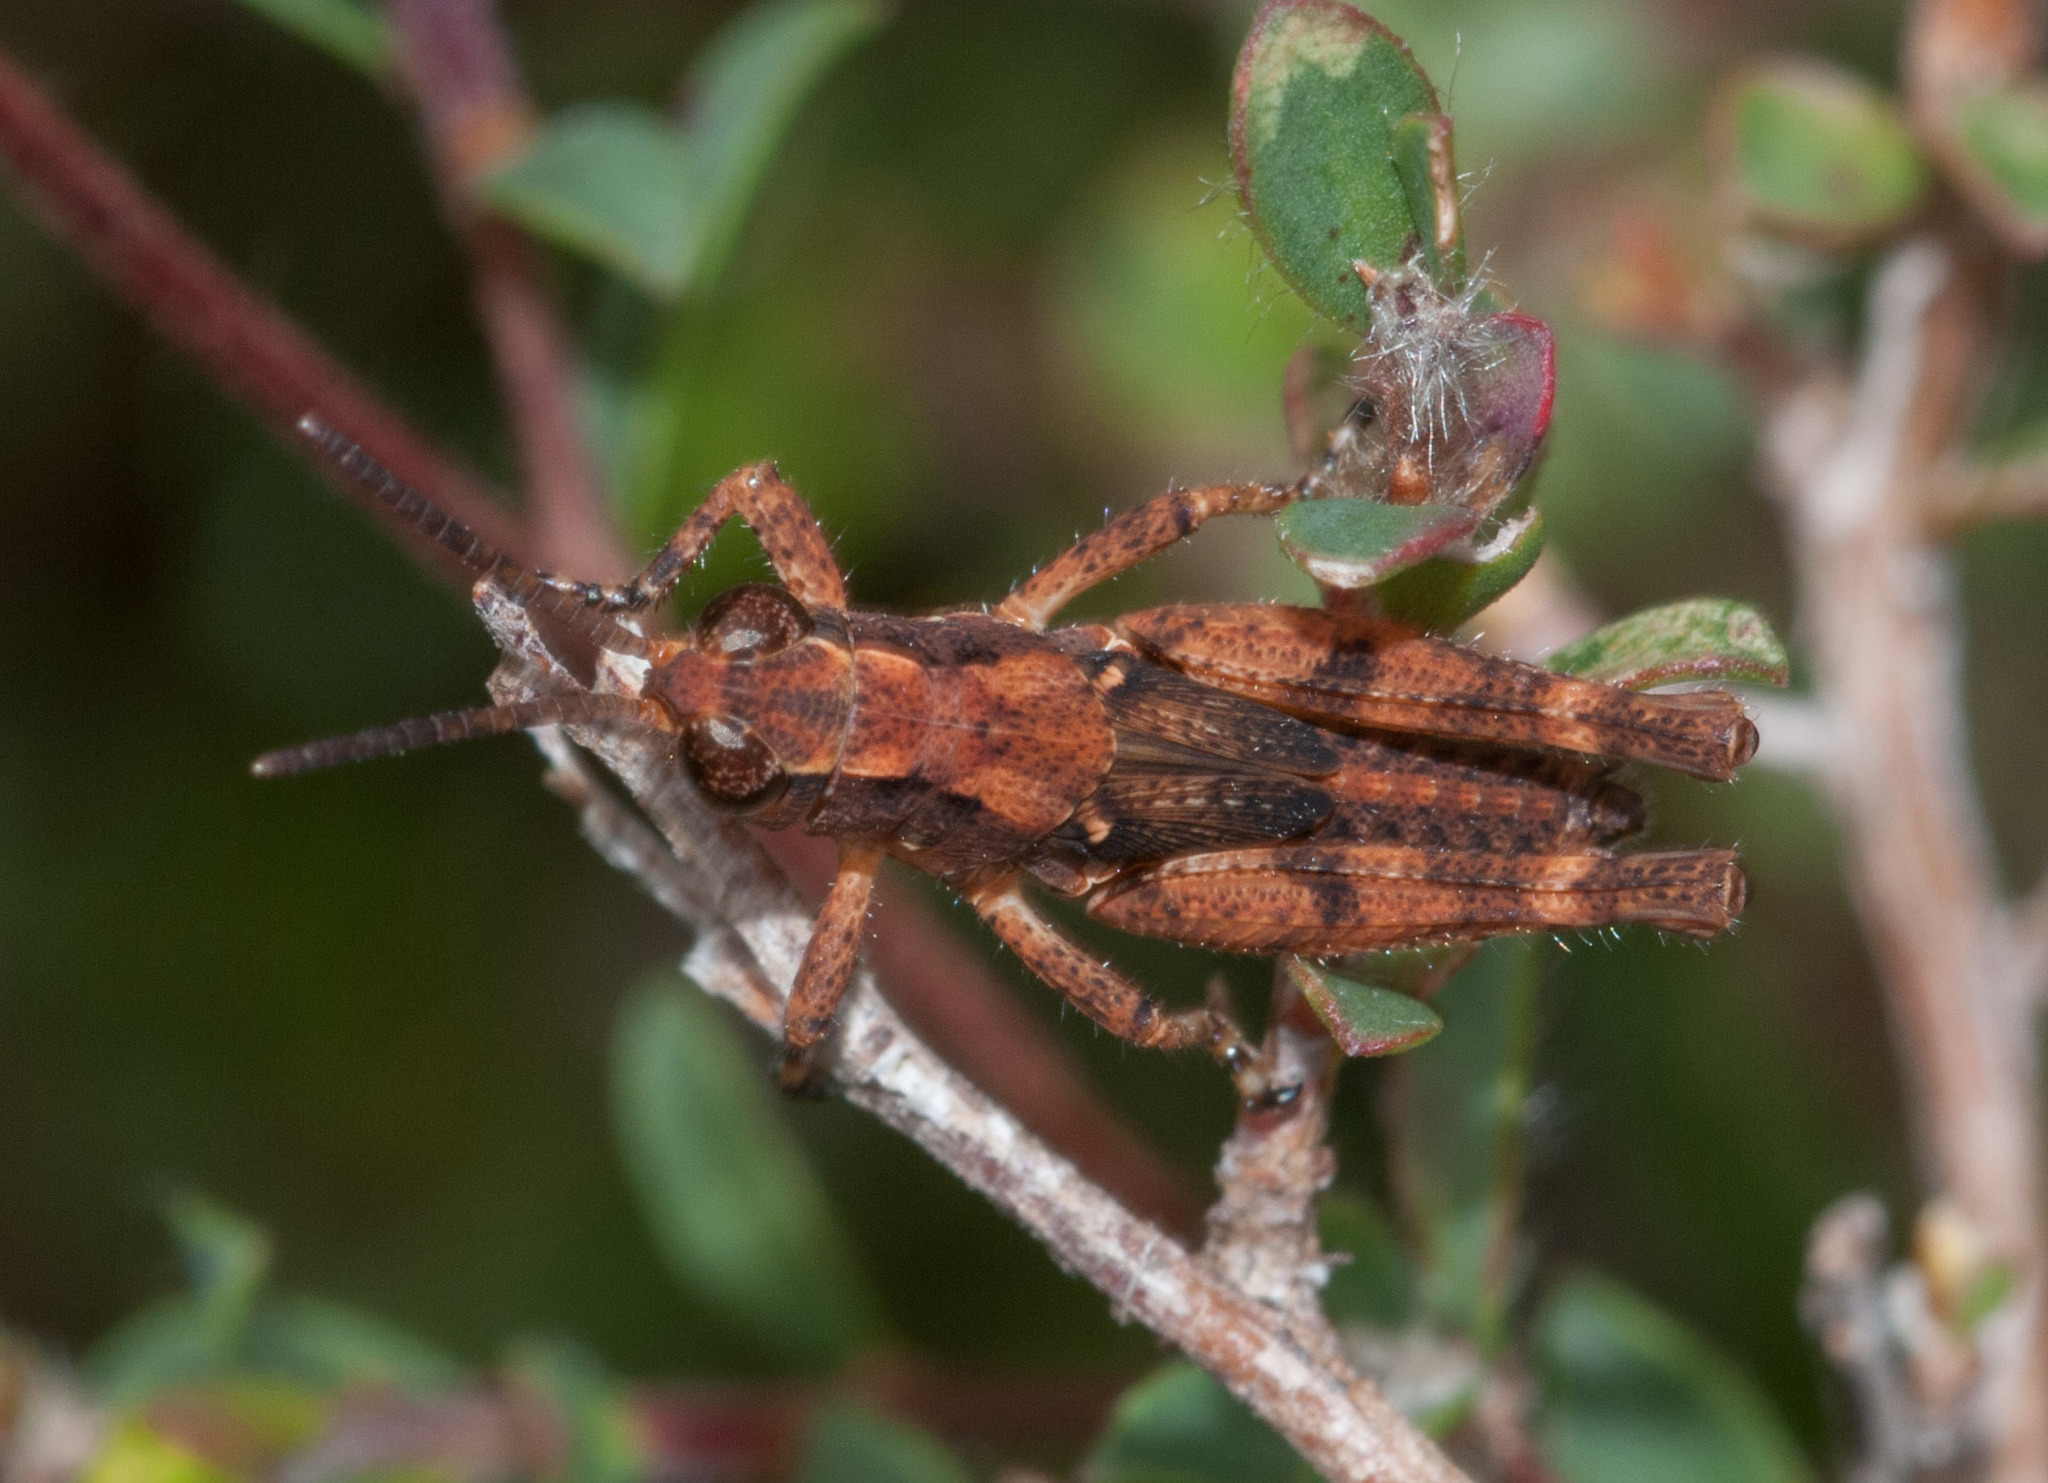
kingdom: Animalia
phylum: Arthropoda
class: Insecta
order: Orthoptera
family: Acrididae
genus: Phaulacridium
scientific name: Phaulacridium vittatum
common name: Wingless grasshopper
